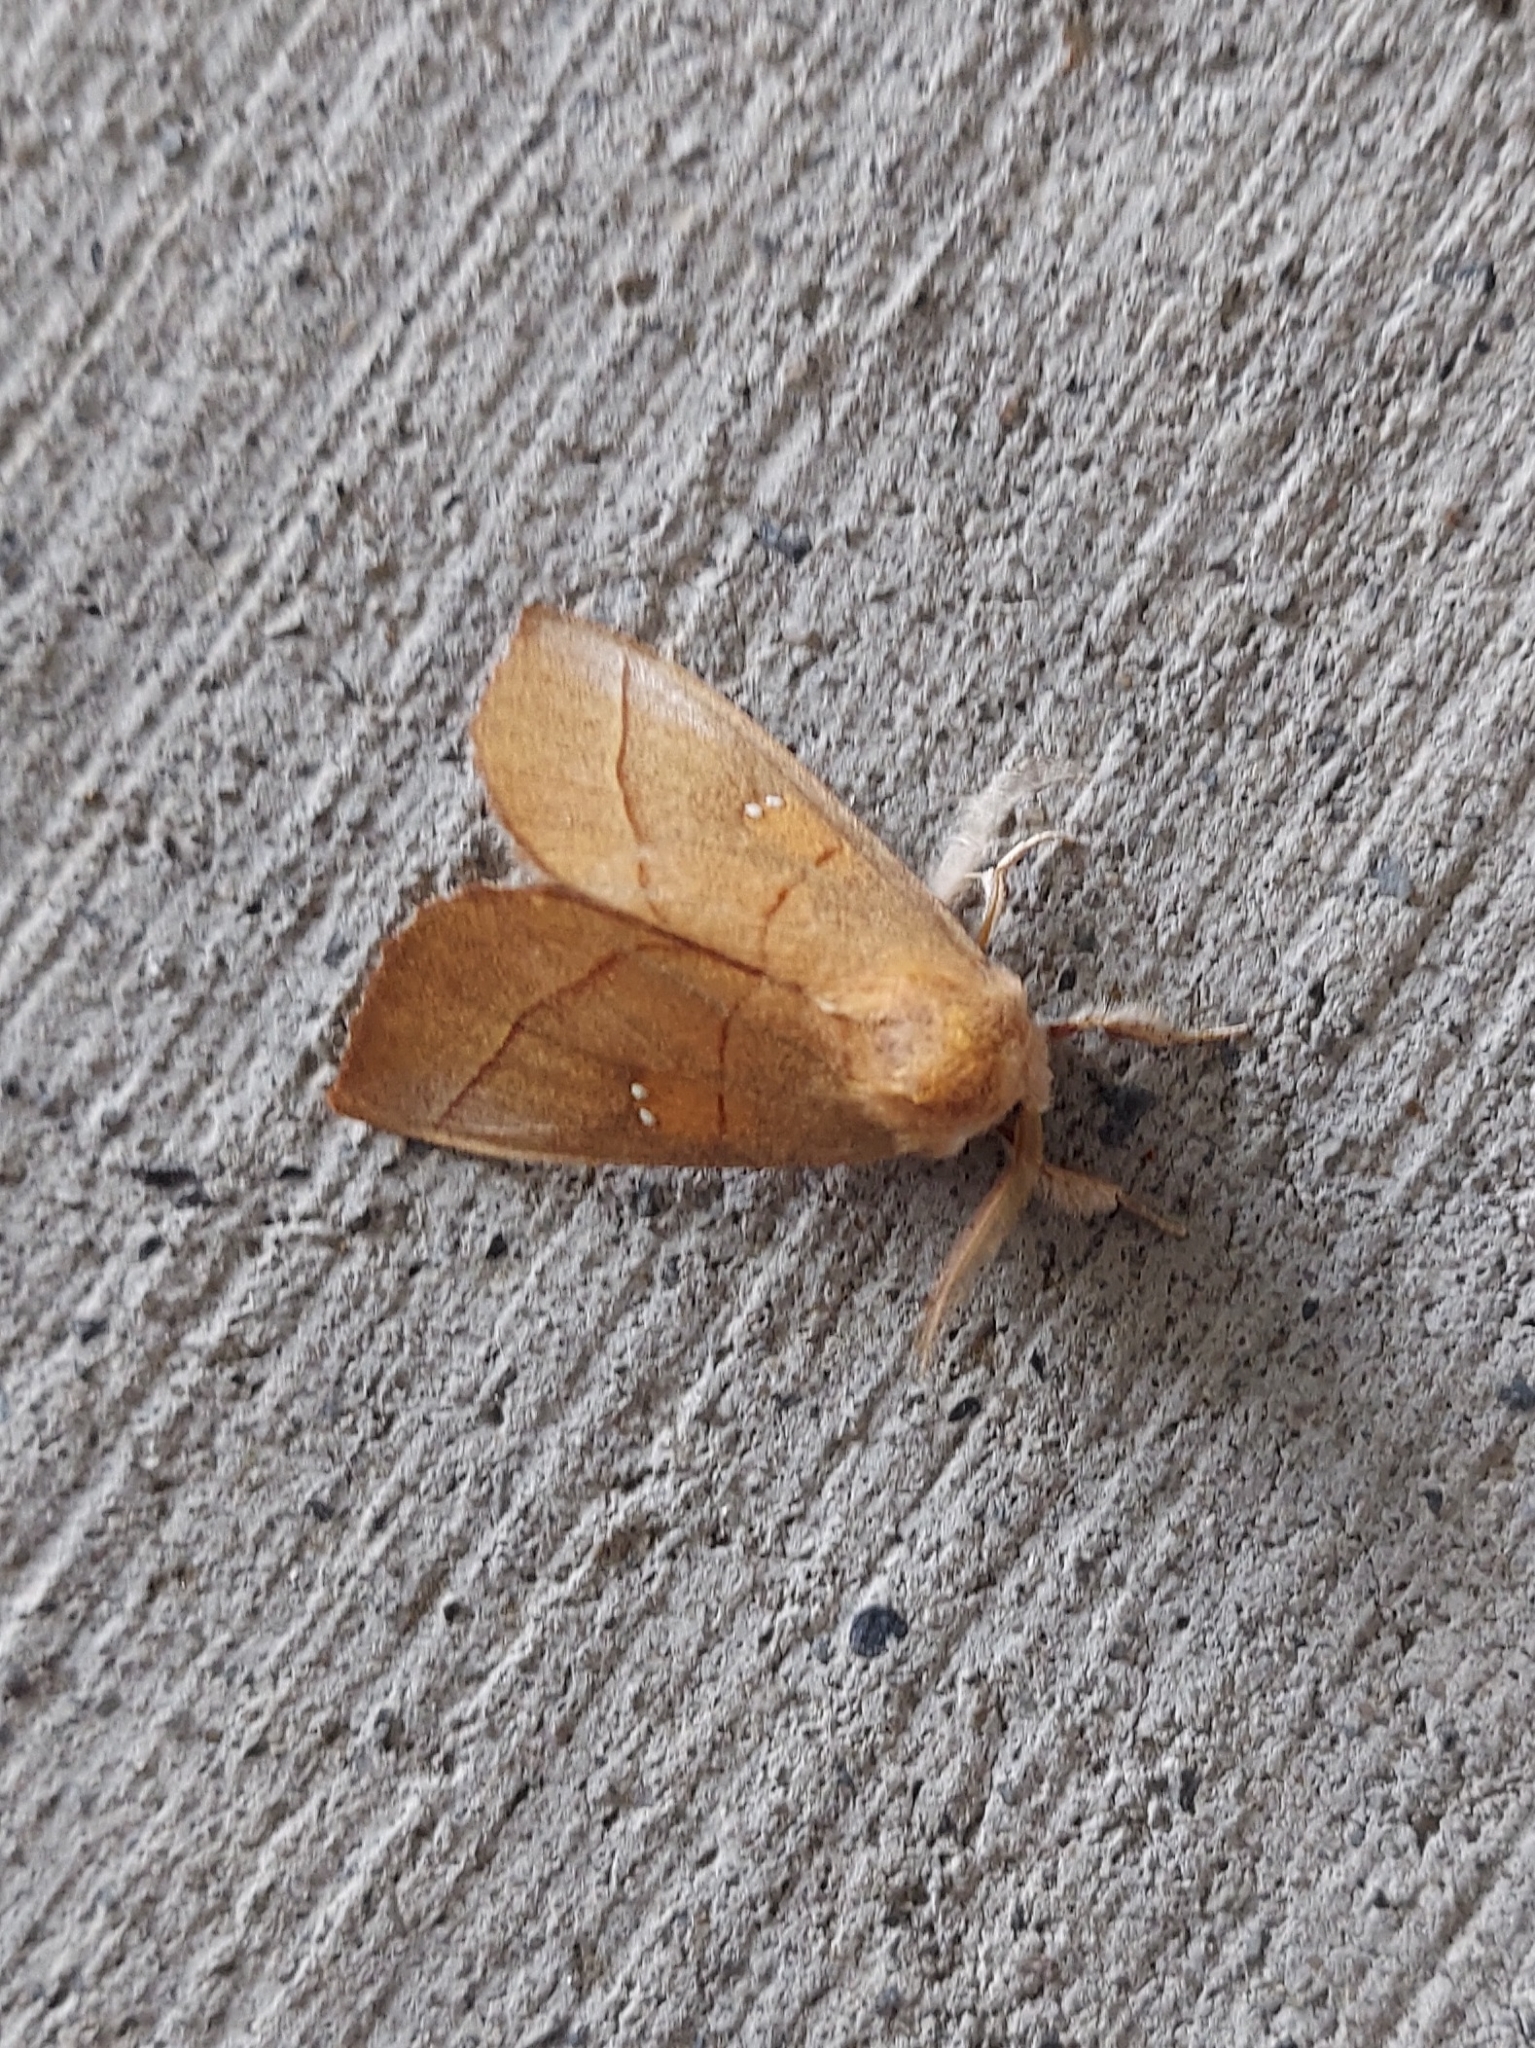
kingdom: Animalia
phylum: Arthropoda
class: Insecta
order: Lepidoptera
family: Notodontidae
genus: Nadata
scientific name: Nadata gibbosa
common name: White-dotted prominent
